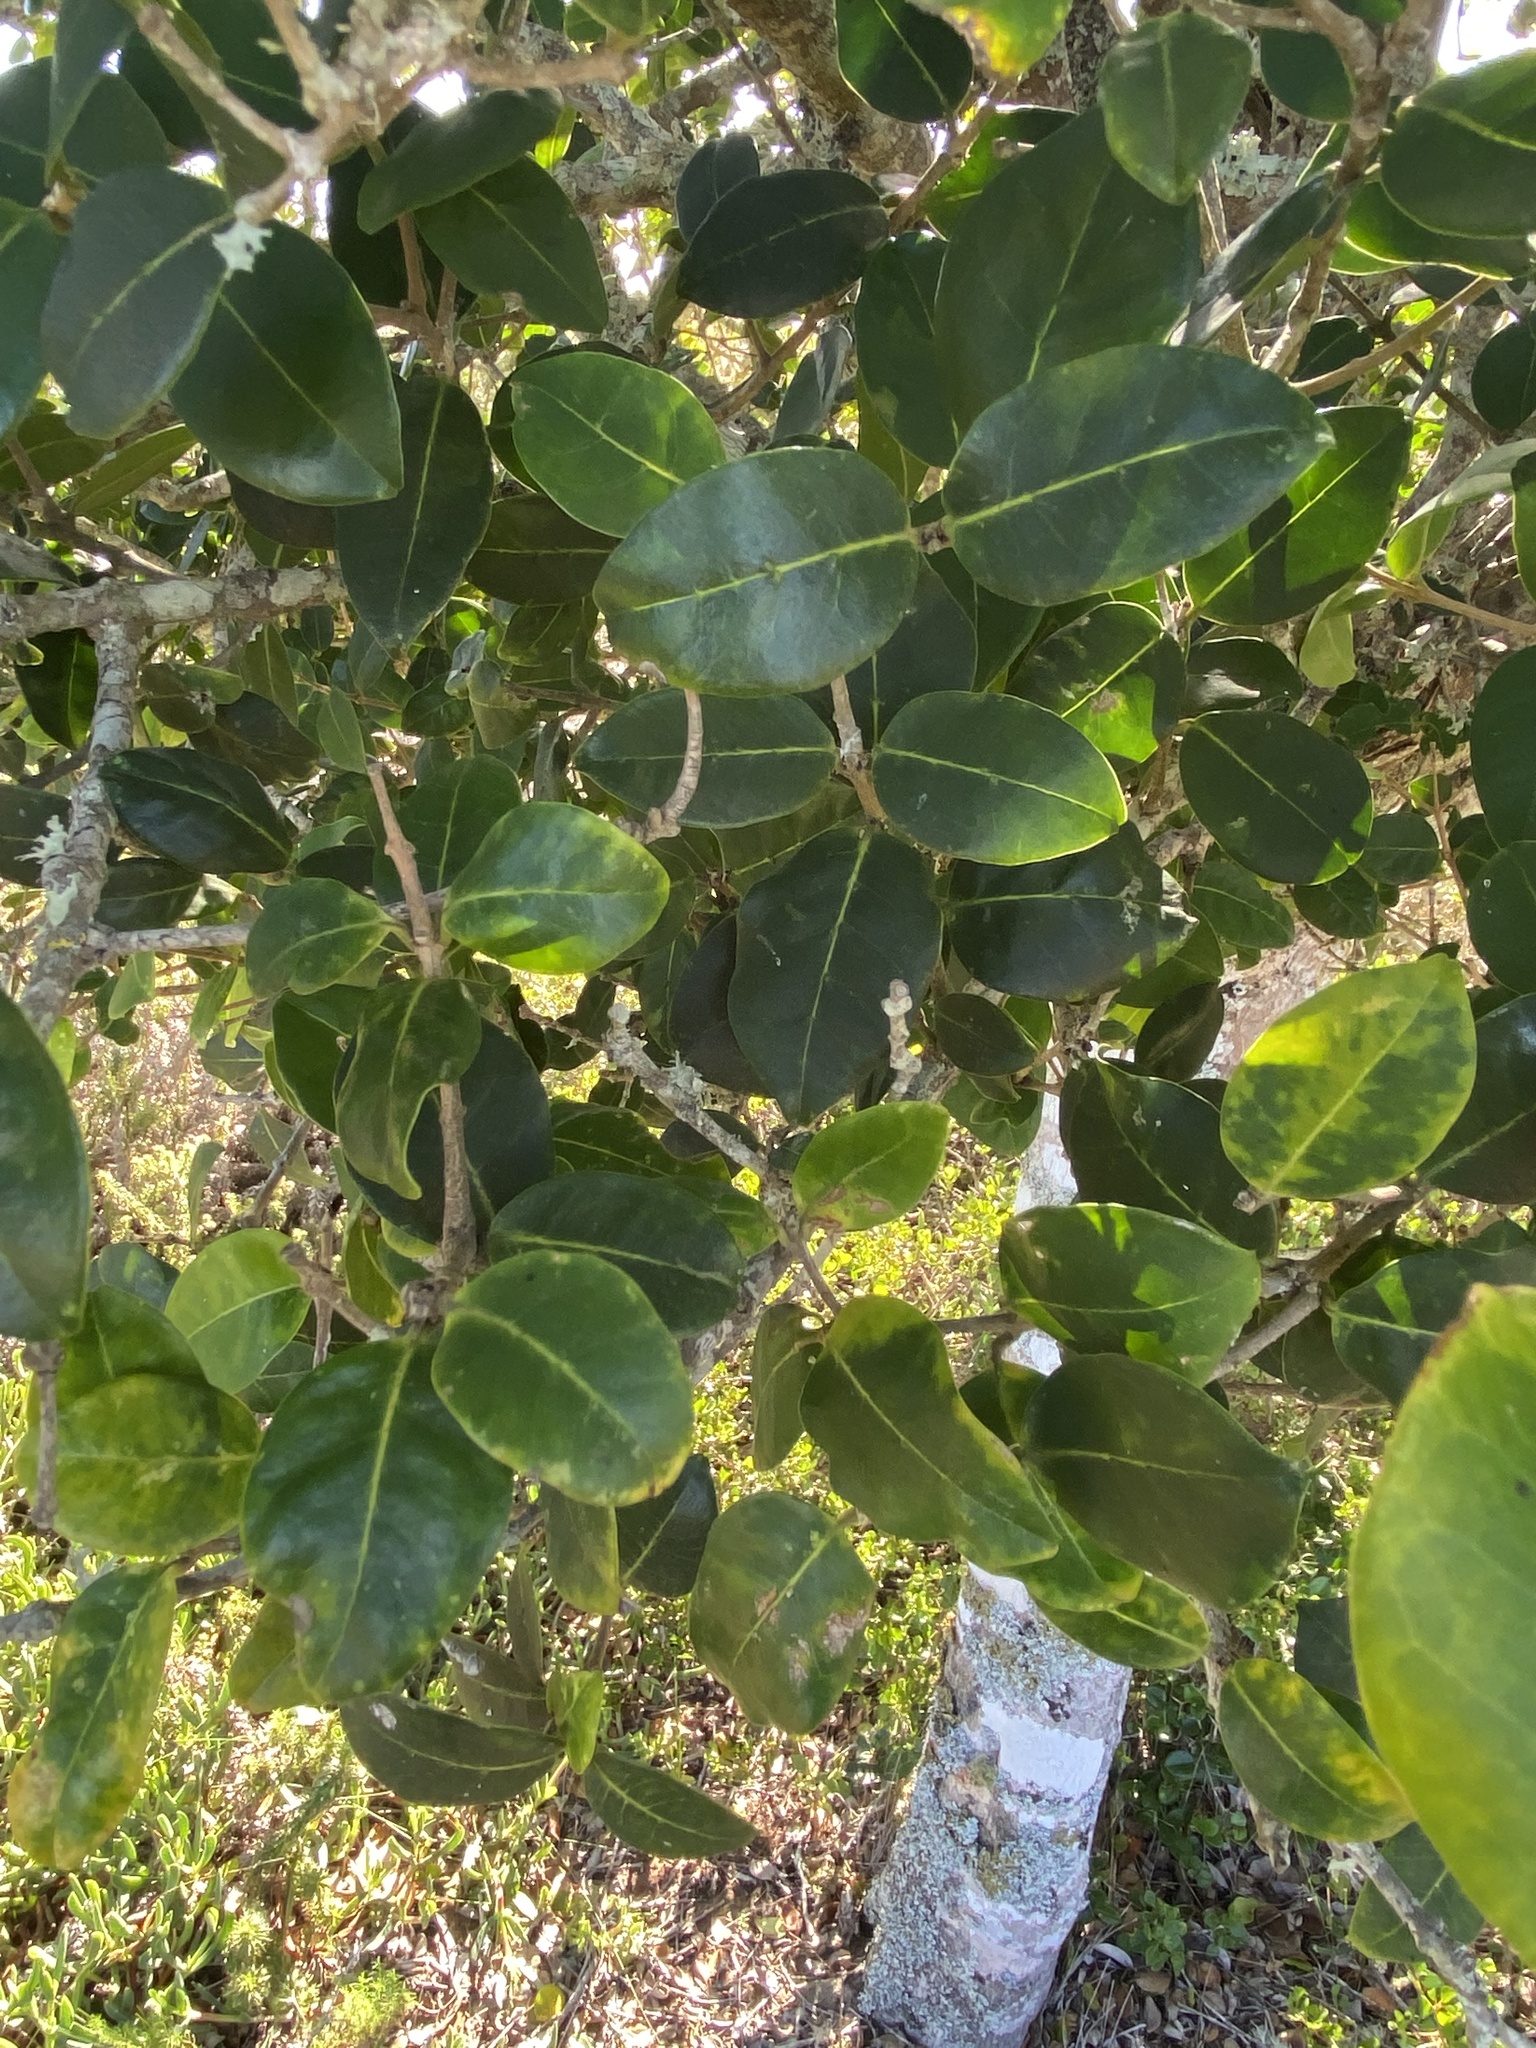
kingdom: Plantae
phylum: Tracheophyta
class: Magnoliopsida
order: Lamiales
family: Oleaceae
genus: Noronhia
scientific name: Noronhia foveolata
